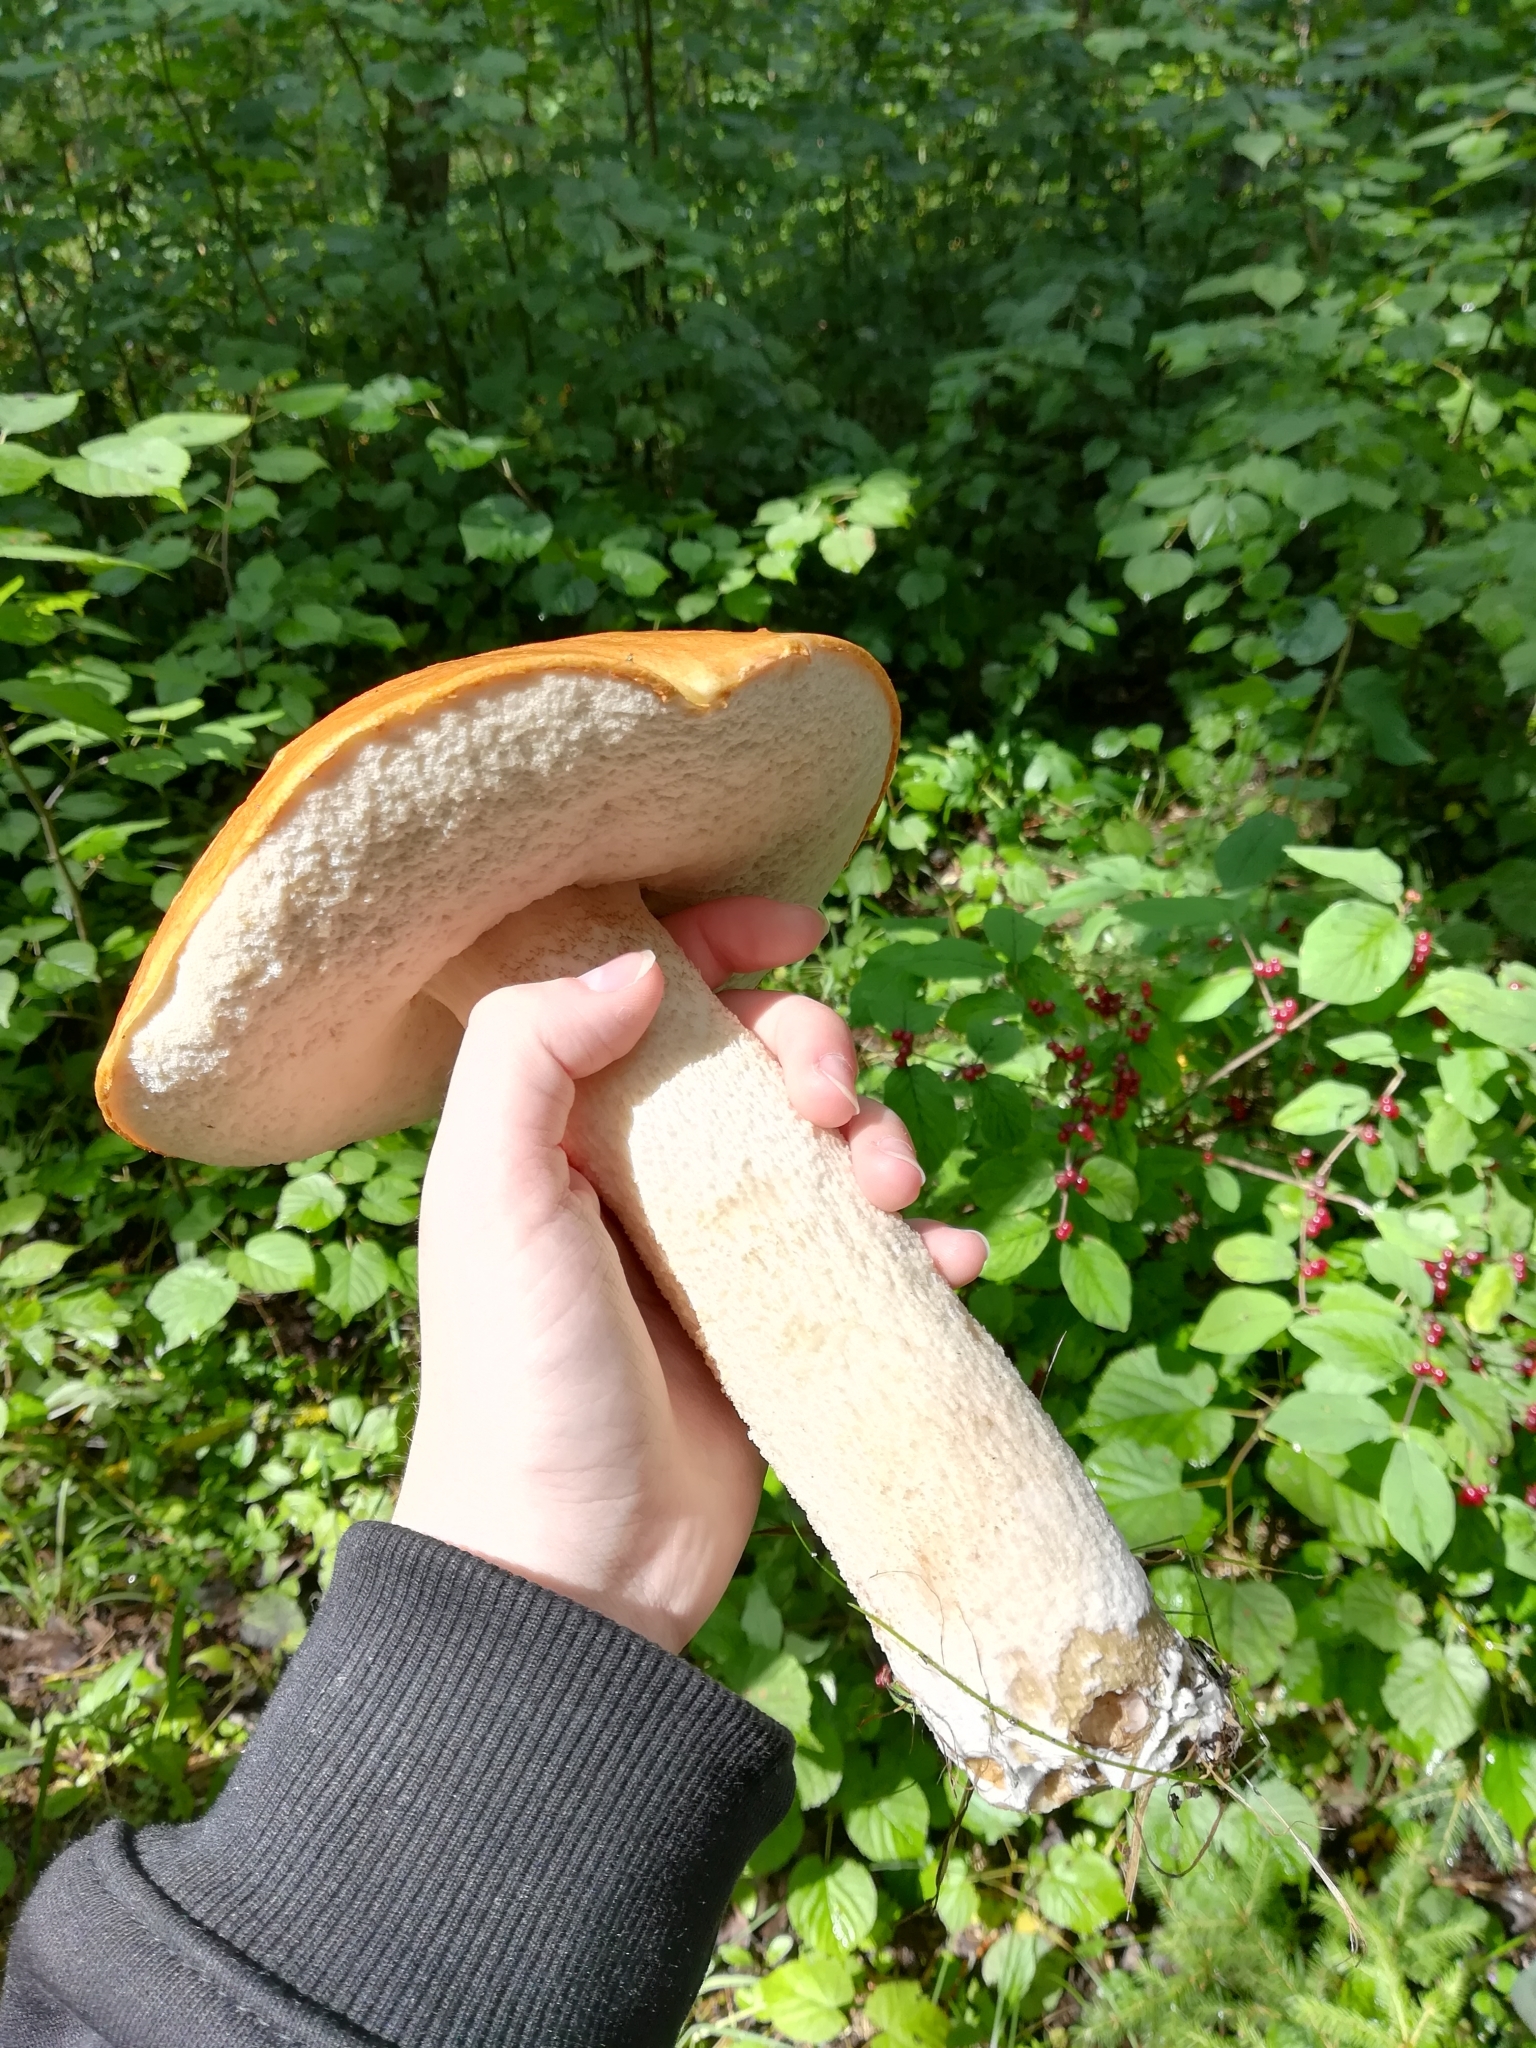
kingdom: Fungi
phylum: Basidiomycota
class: Agaricomycetes
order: Boletales
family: Boletaceae
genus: Leccinum
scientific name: Leccinum albostipitatum
